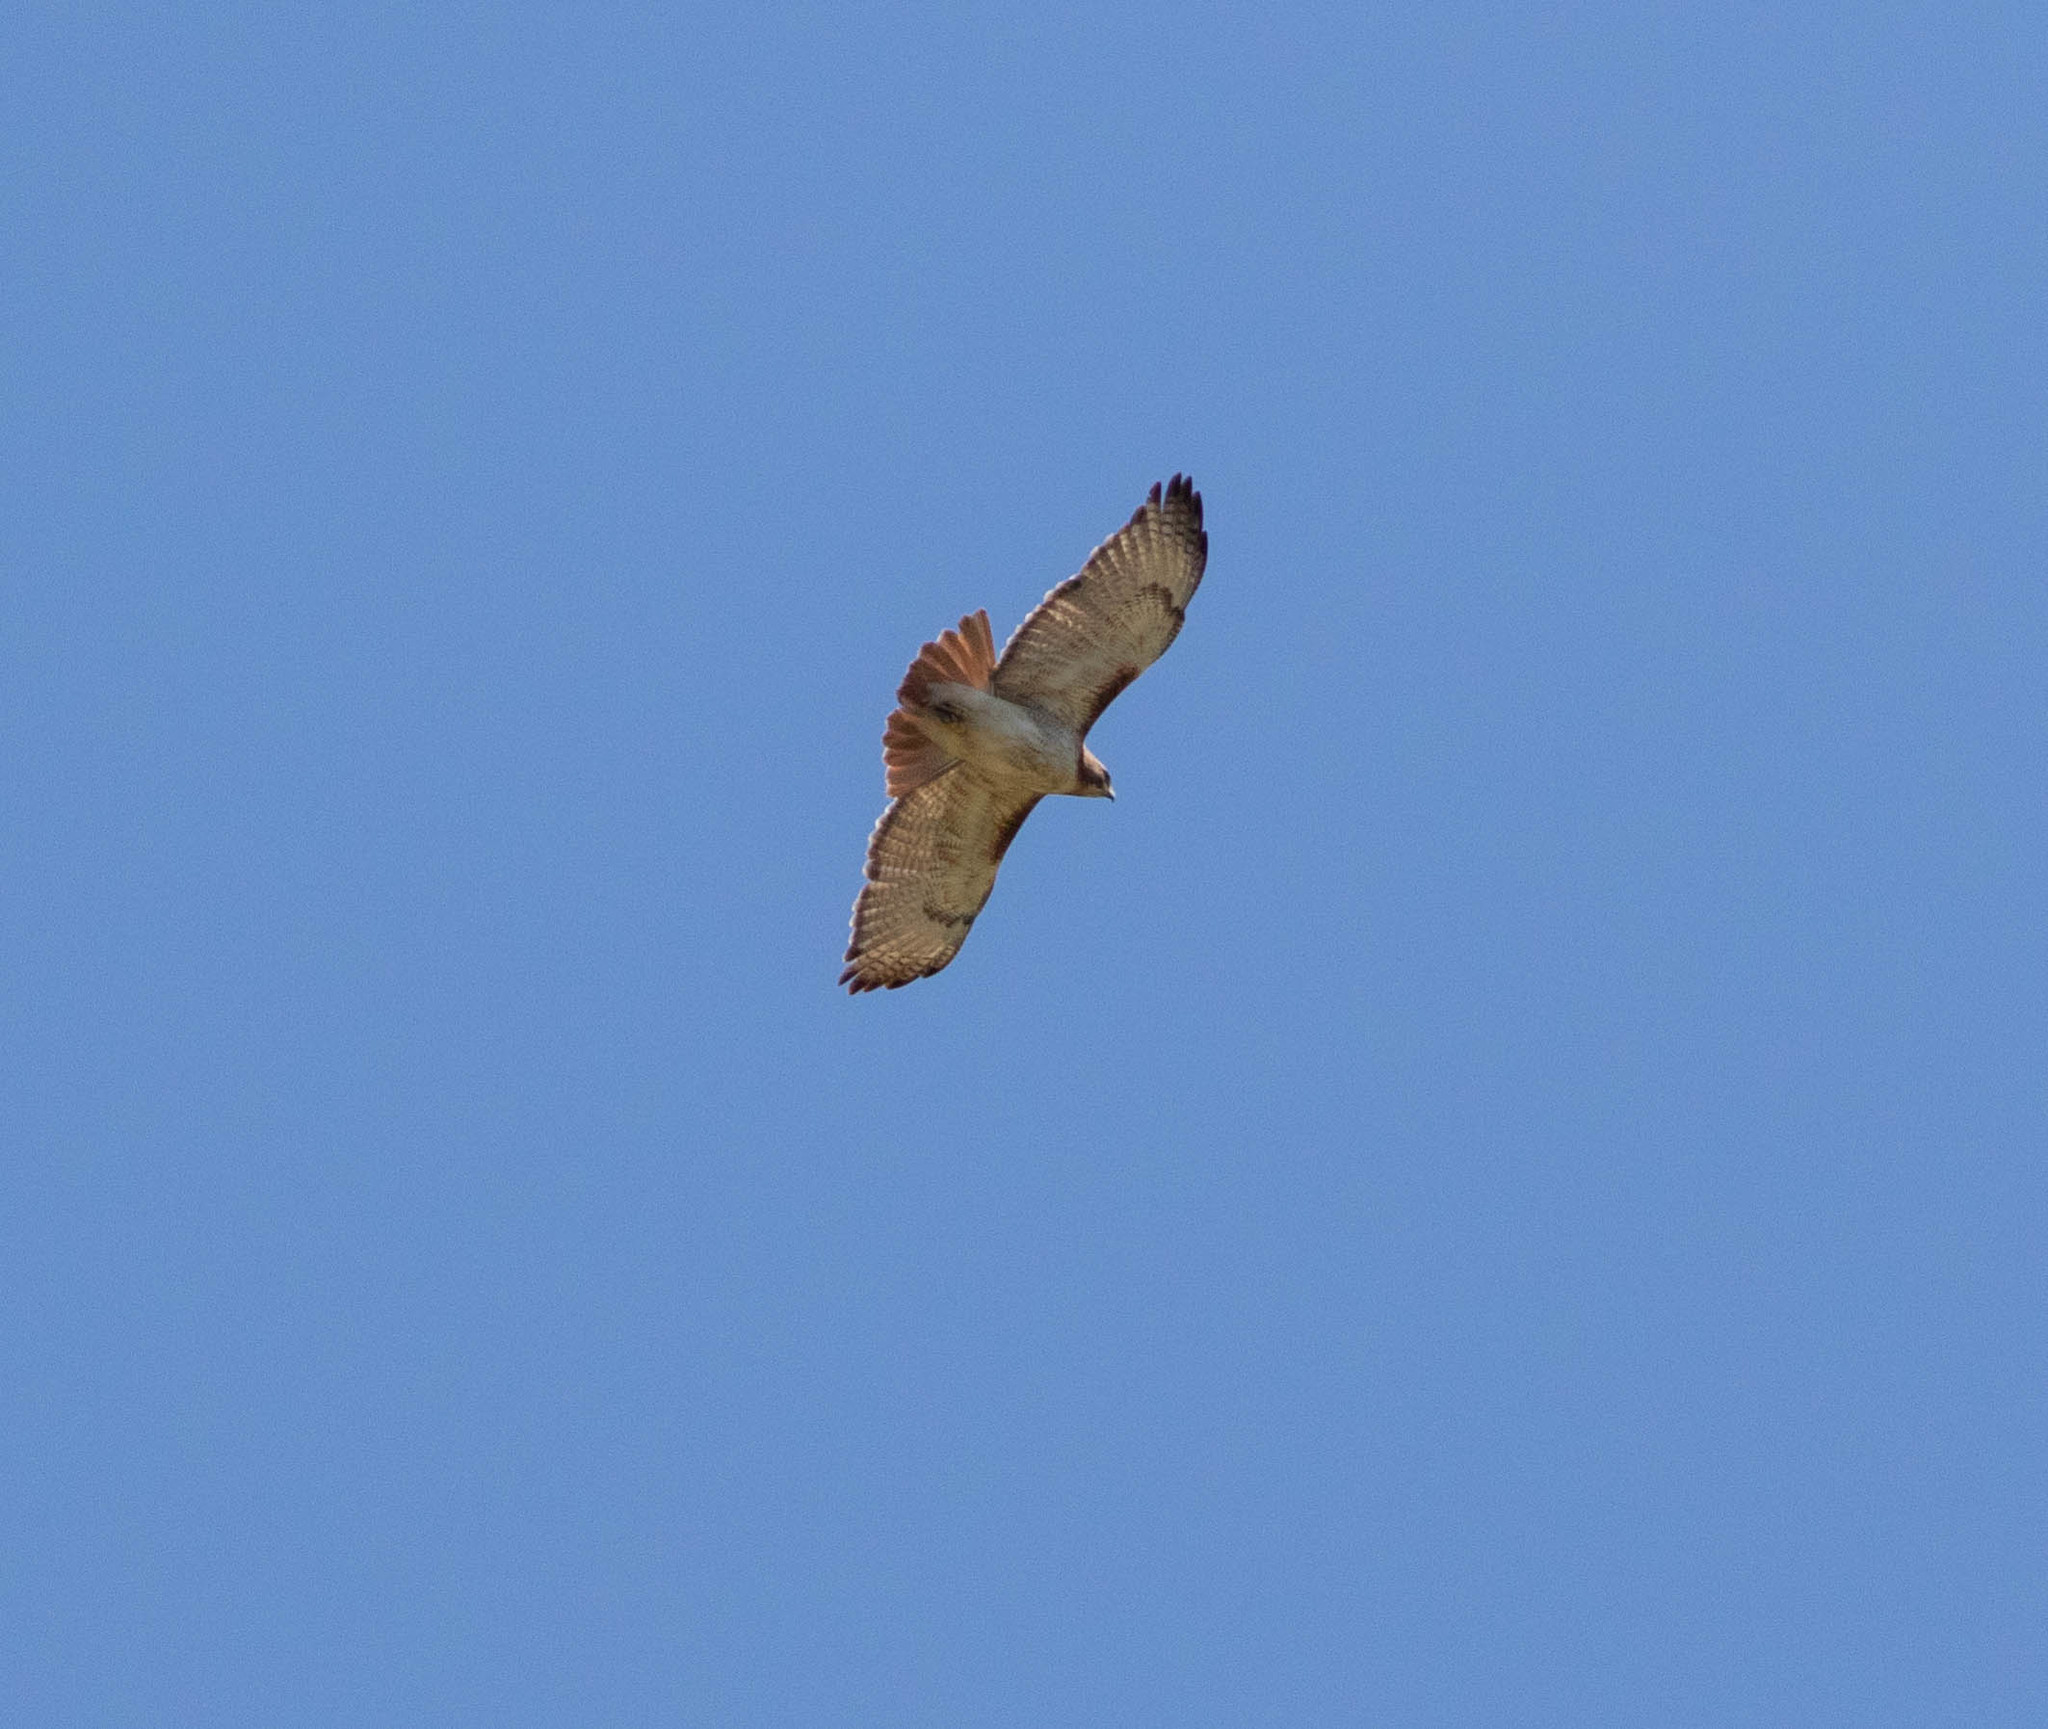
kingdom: Animalia
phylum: Chordata
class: Aves
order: Accipitriformes
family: Accipitridae
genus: Buteo
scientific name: Buteo jamaicensis
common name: Red-tailed hawk
